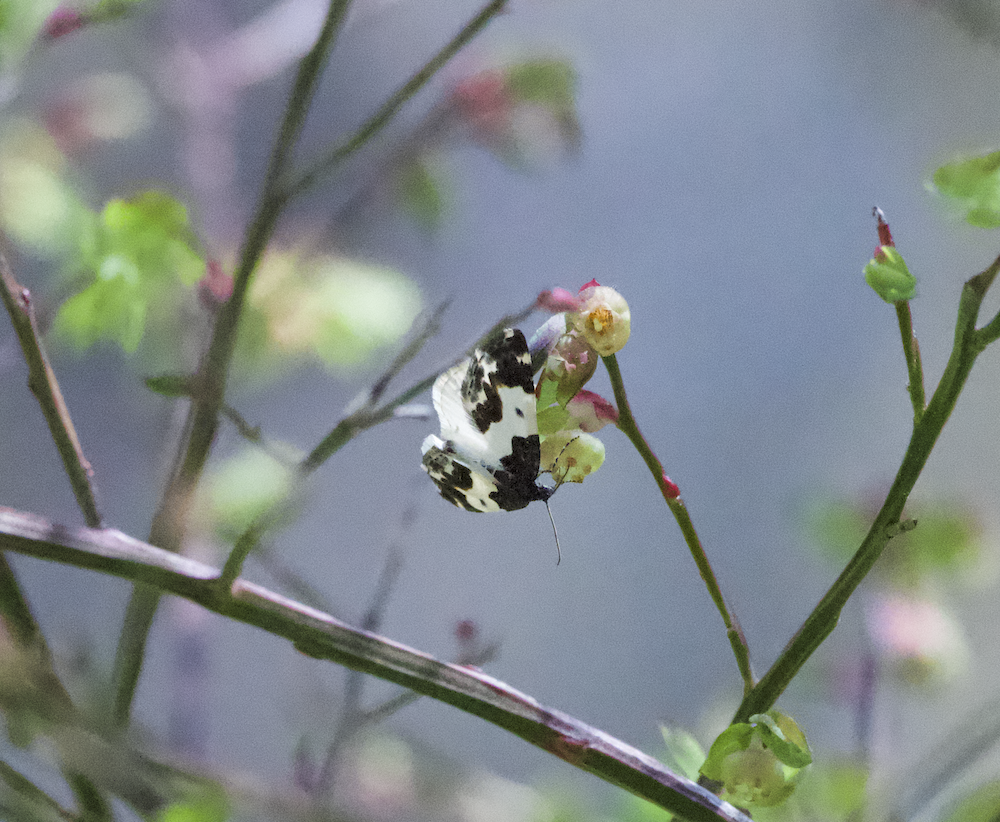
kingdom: Animalia
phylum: Arthropoda
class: Insecta
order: Lepidoptera
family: Geometridae
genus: Mesoleuca
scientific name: Mesoleuca gratulata
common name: Half-white carpet moth
